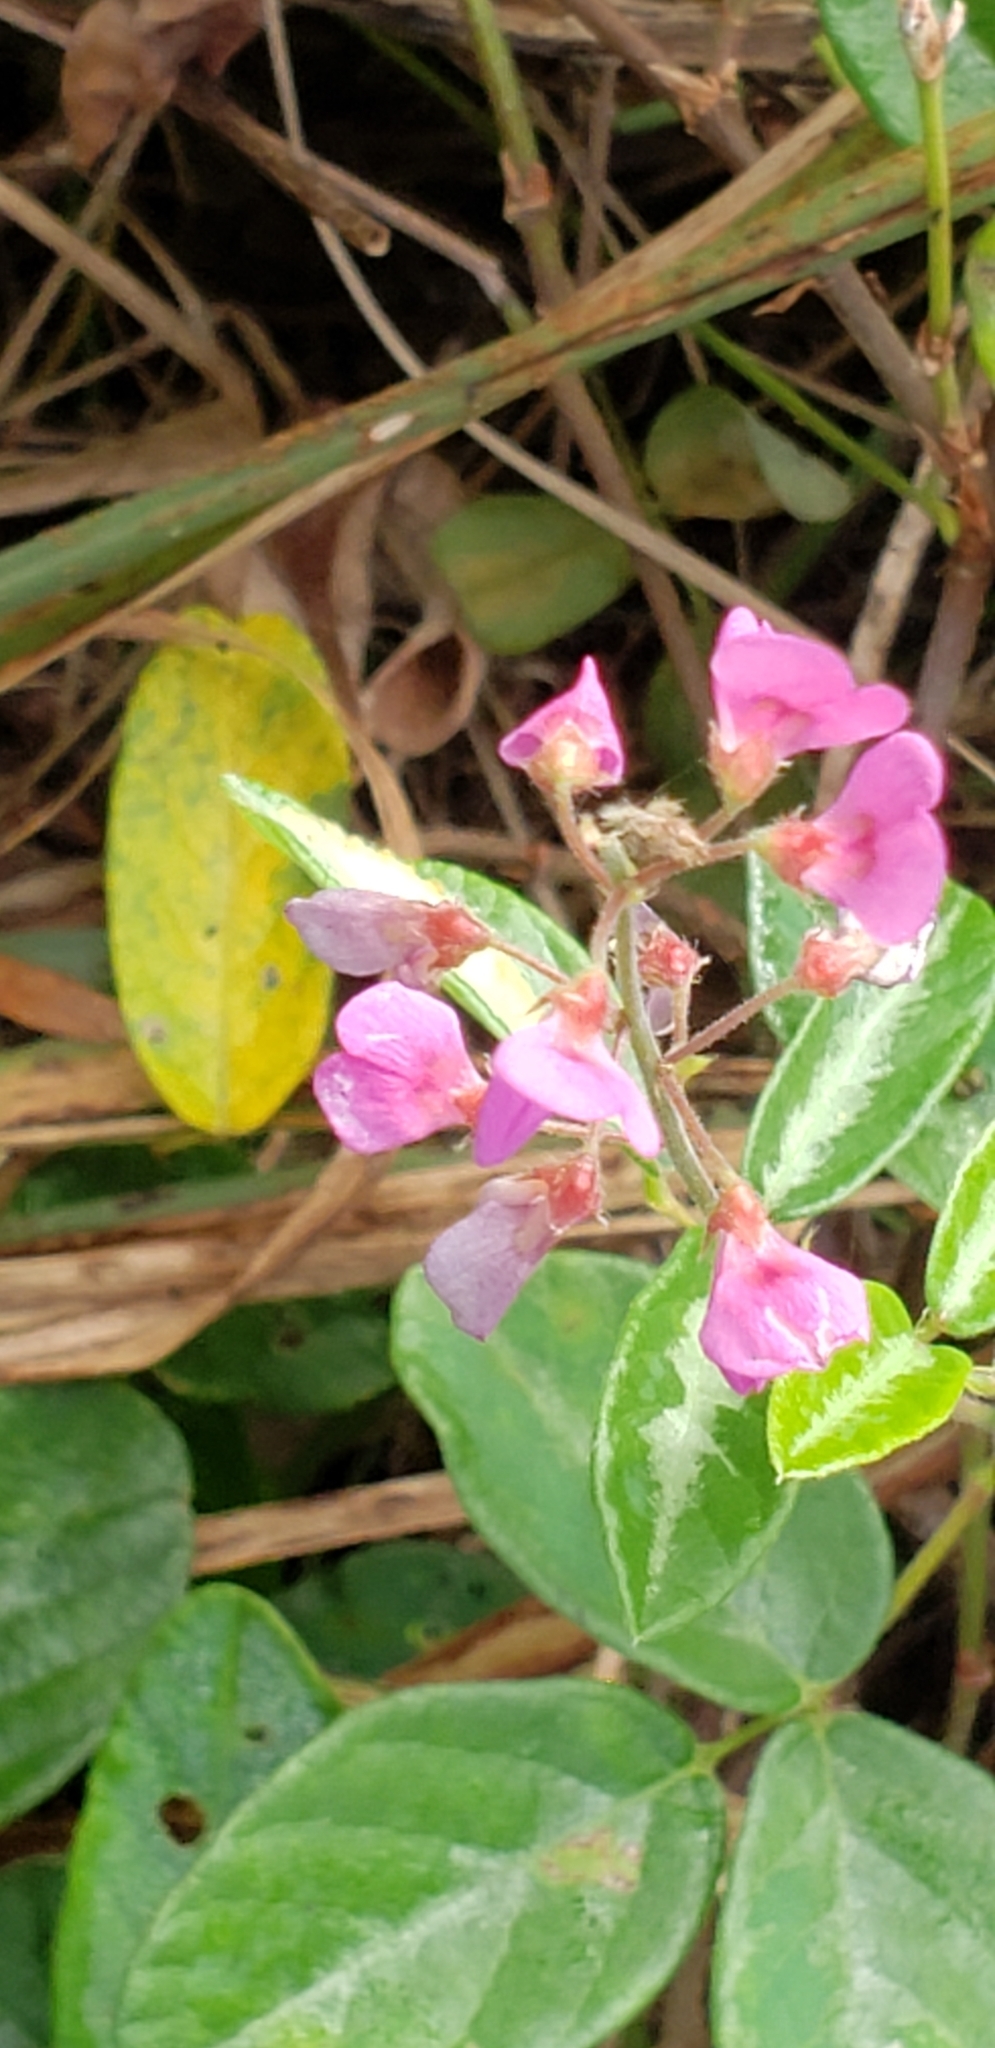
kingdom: Plantae
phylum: Tracheophyta
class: Magnoliopsida
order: Fabales
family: Fabaceae
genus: Desmodium
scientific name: Desmodium incanum
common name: Tickclover
